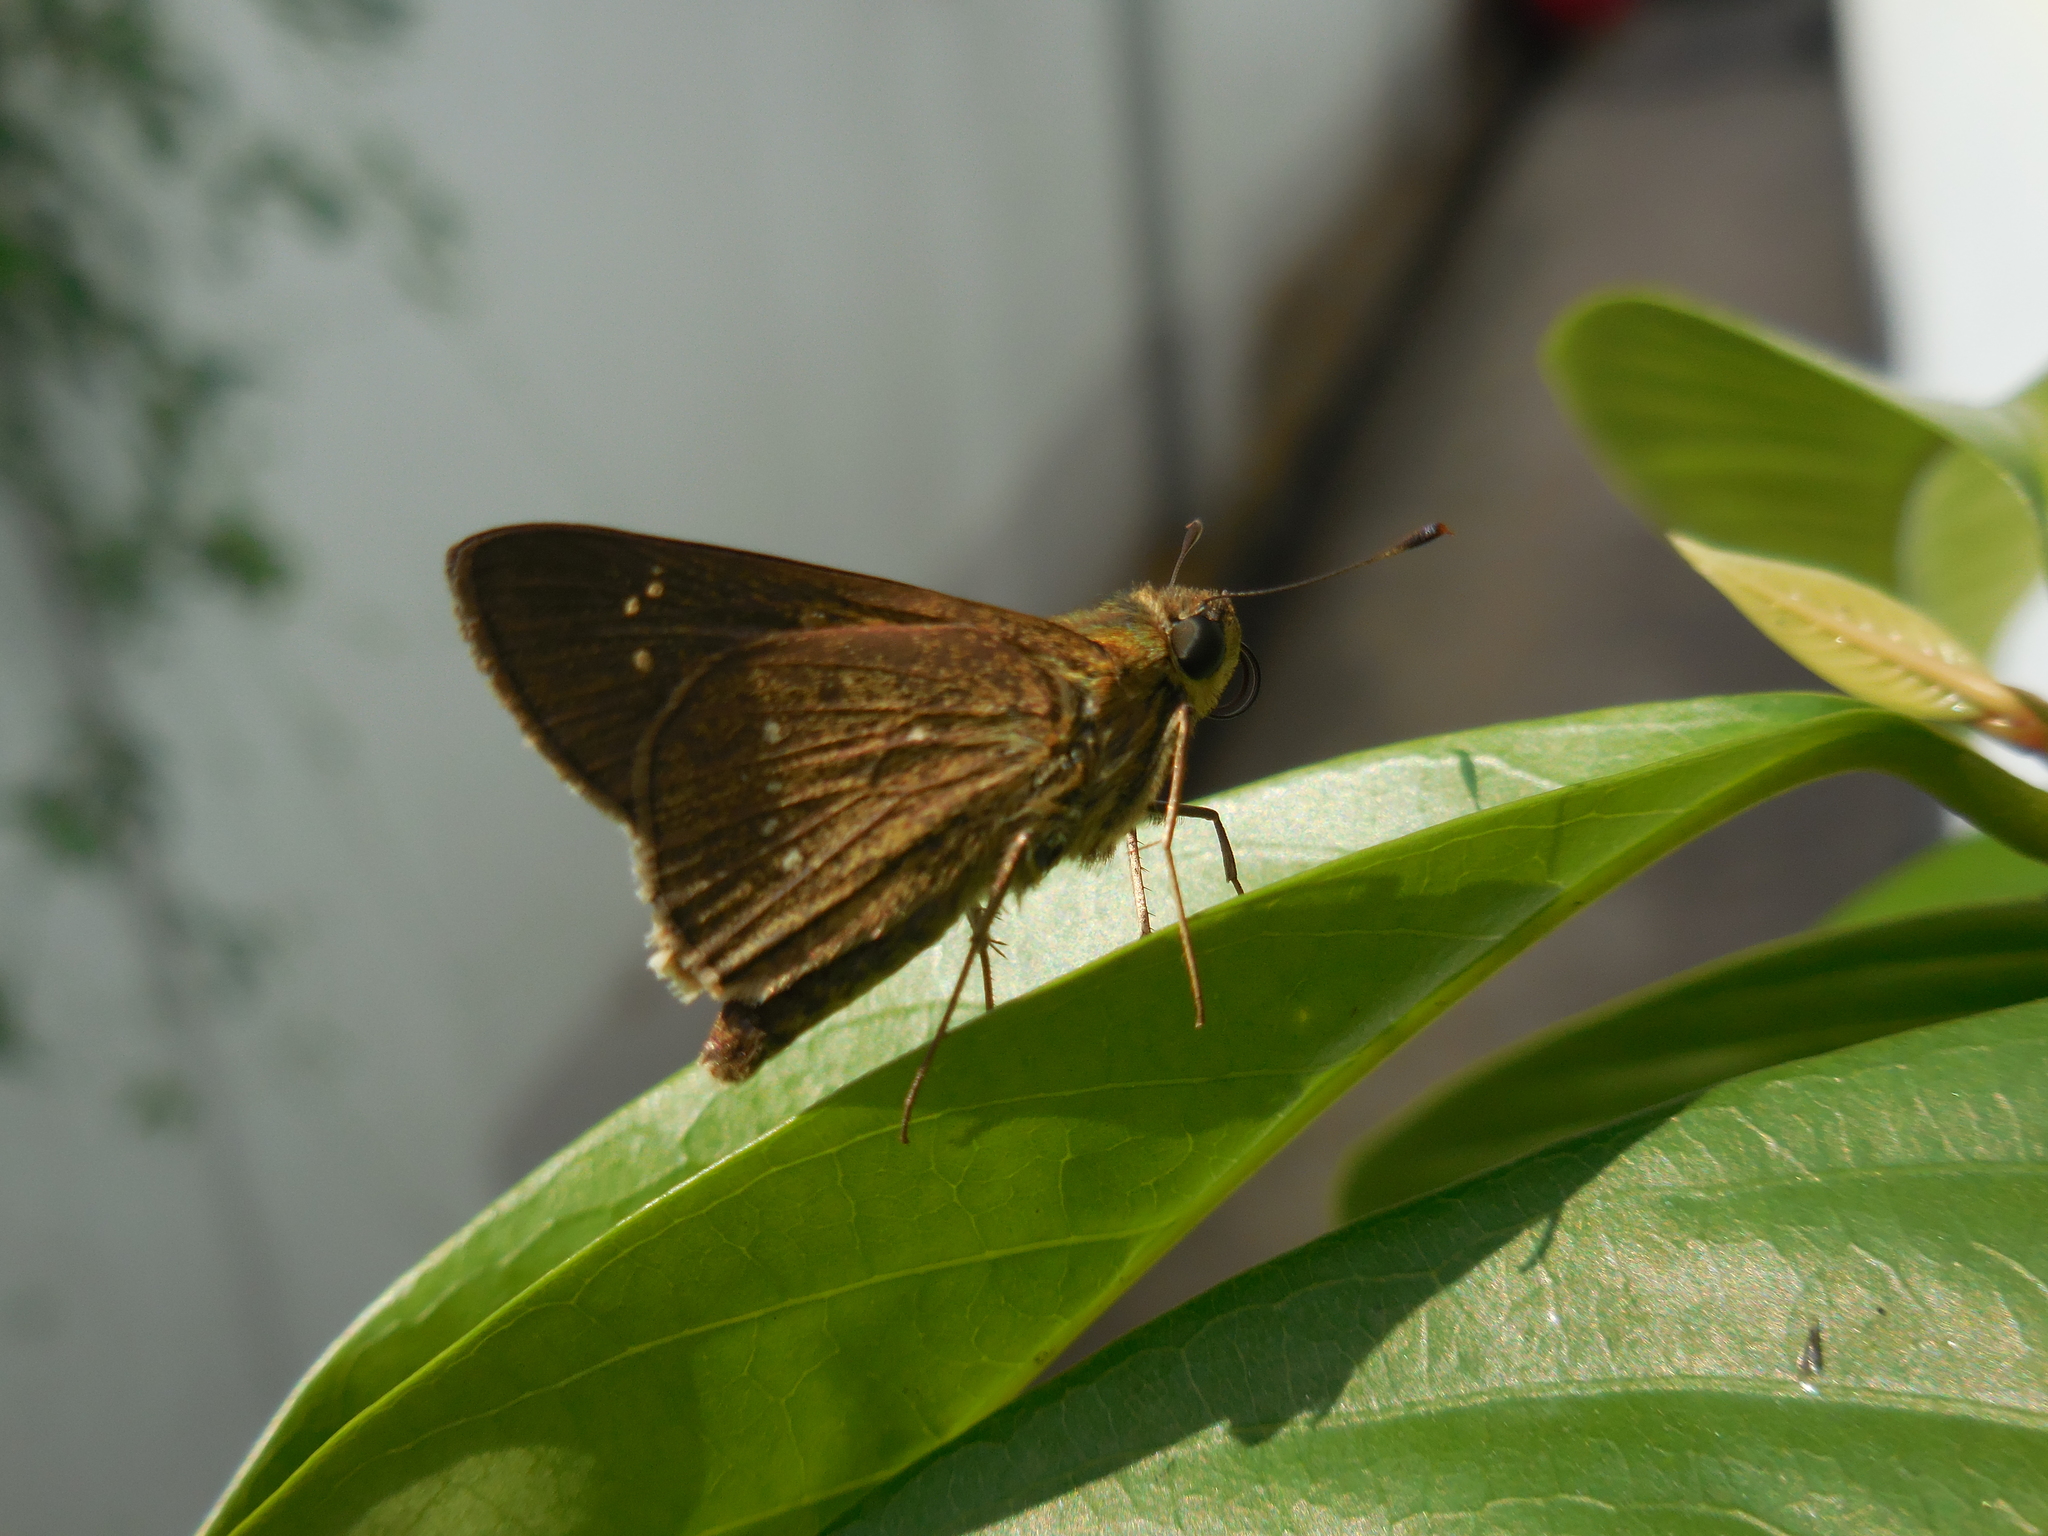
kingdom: Animalia
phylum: Arthropoda
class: Insecta
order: Lepidoptera
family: Hesperiidae
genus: Borbo
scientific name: Borbo cinnara
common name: Formosan swift
